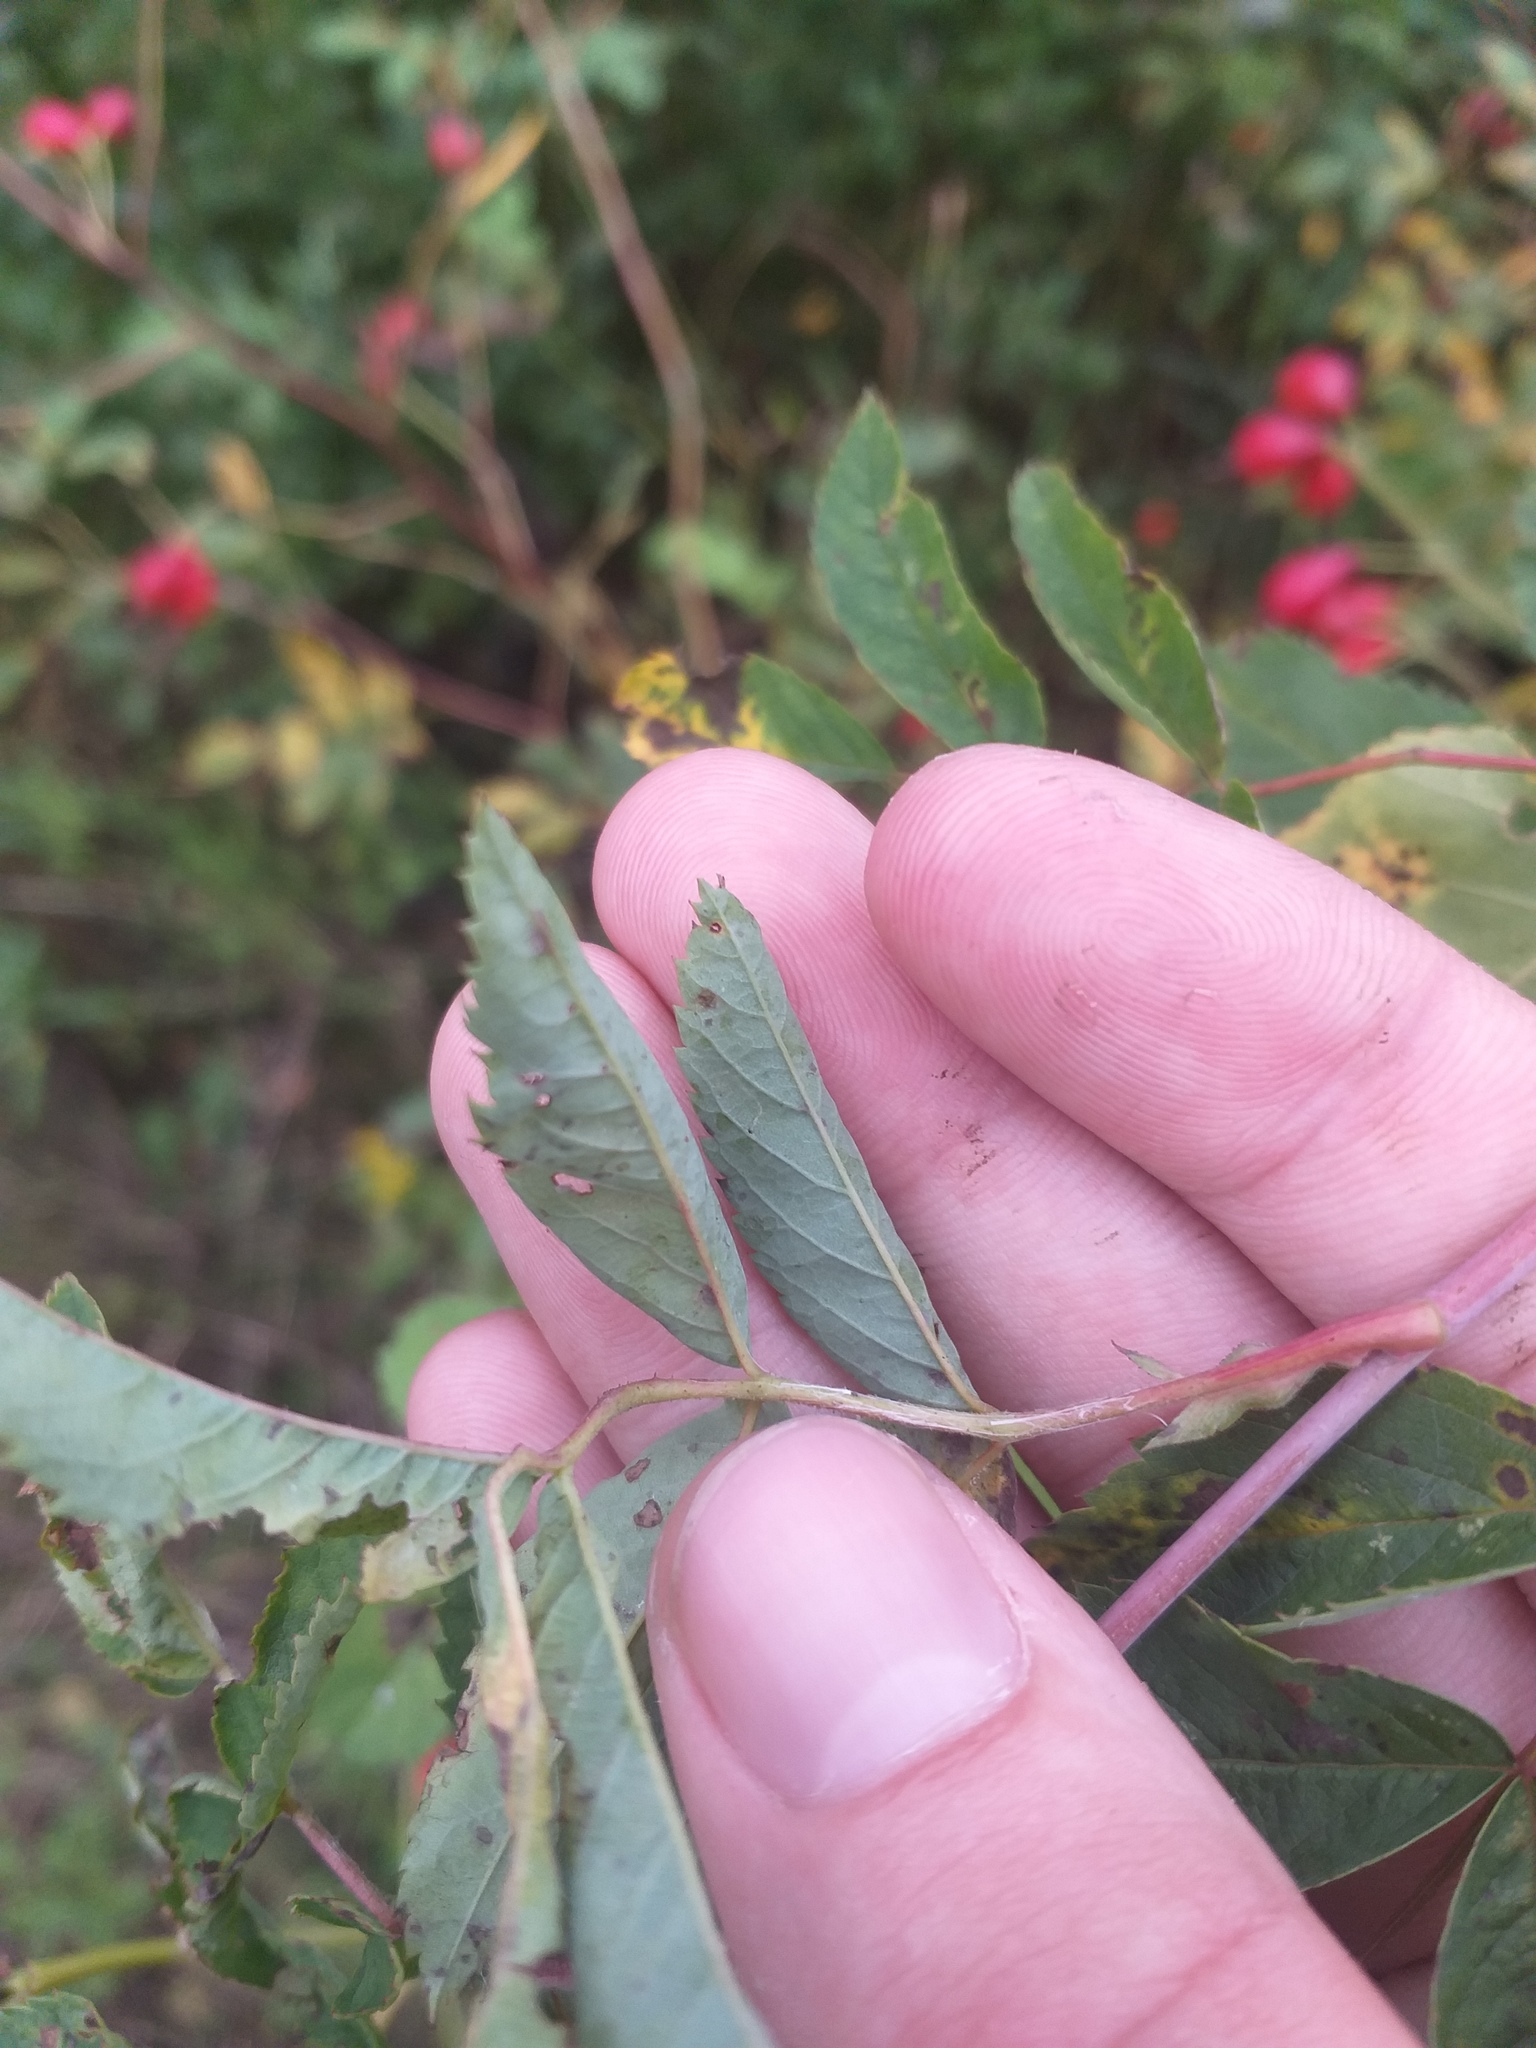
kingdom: Plantae
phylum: Tracheophyta
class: Magnoliopsida
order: Rosales
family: Rosaceae
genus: Rosa
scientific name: Rosa majalis
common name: Cinnamon rose
